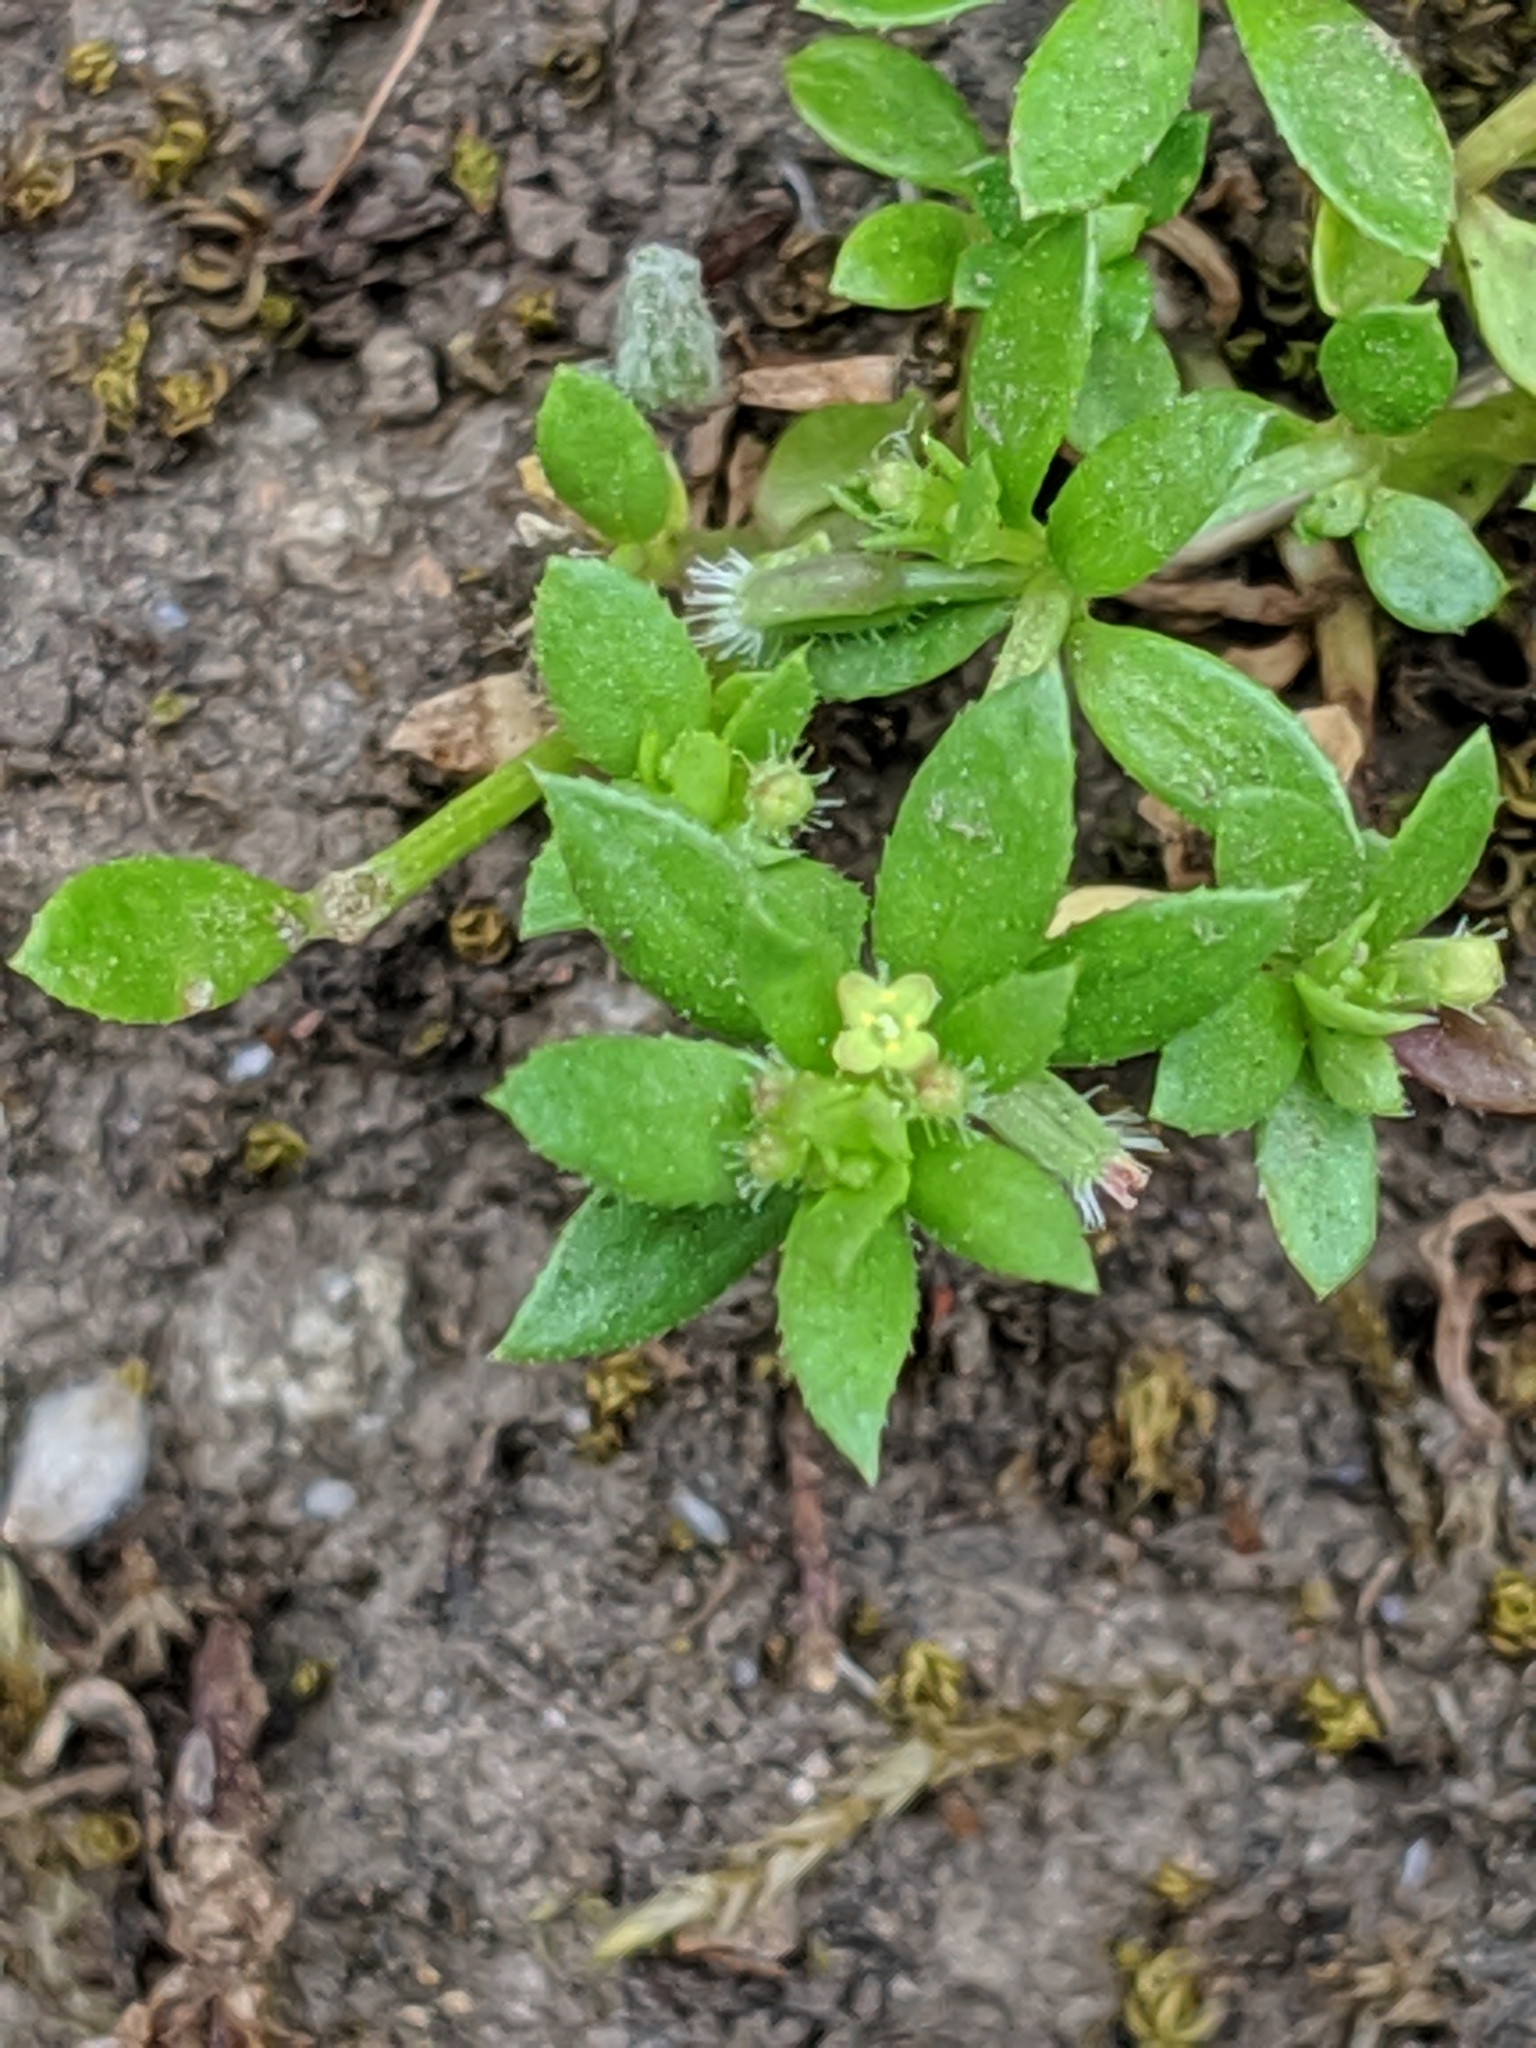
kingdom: Plantae
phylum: Tracheophyta
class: Magnoliopsida
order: Gentianales
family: Rubiaceae
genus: Galium
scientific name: Galium murale
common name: Yellow wall bedstraw
